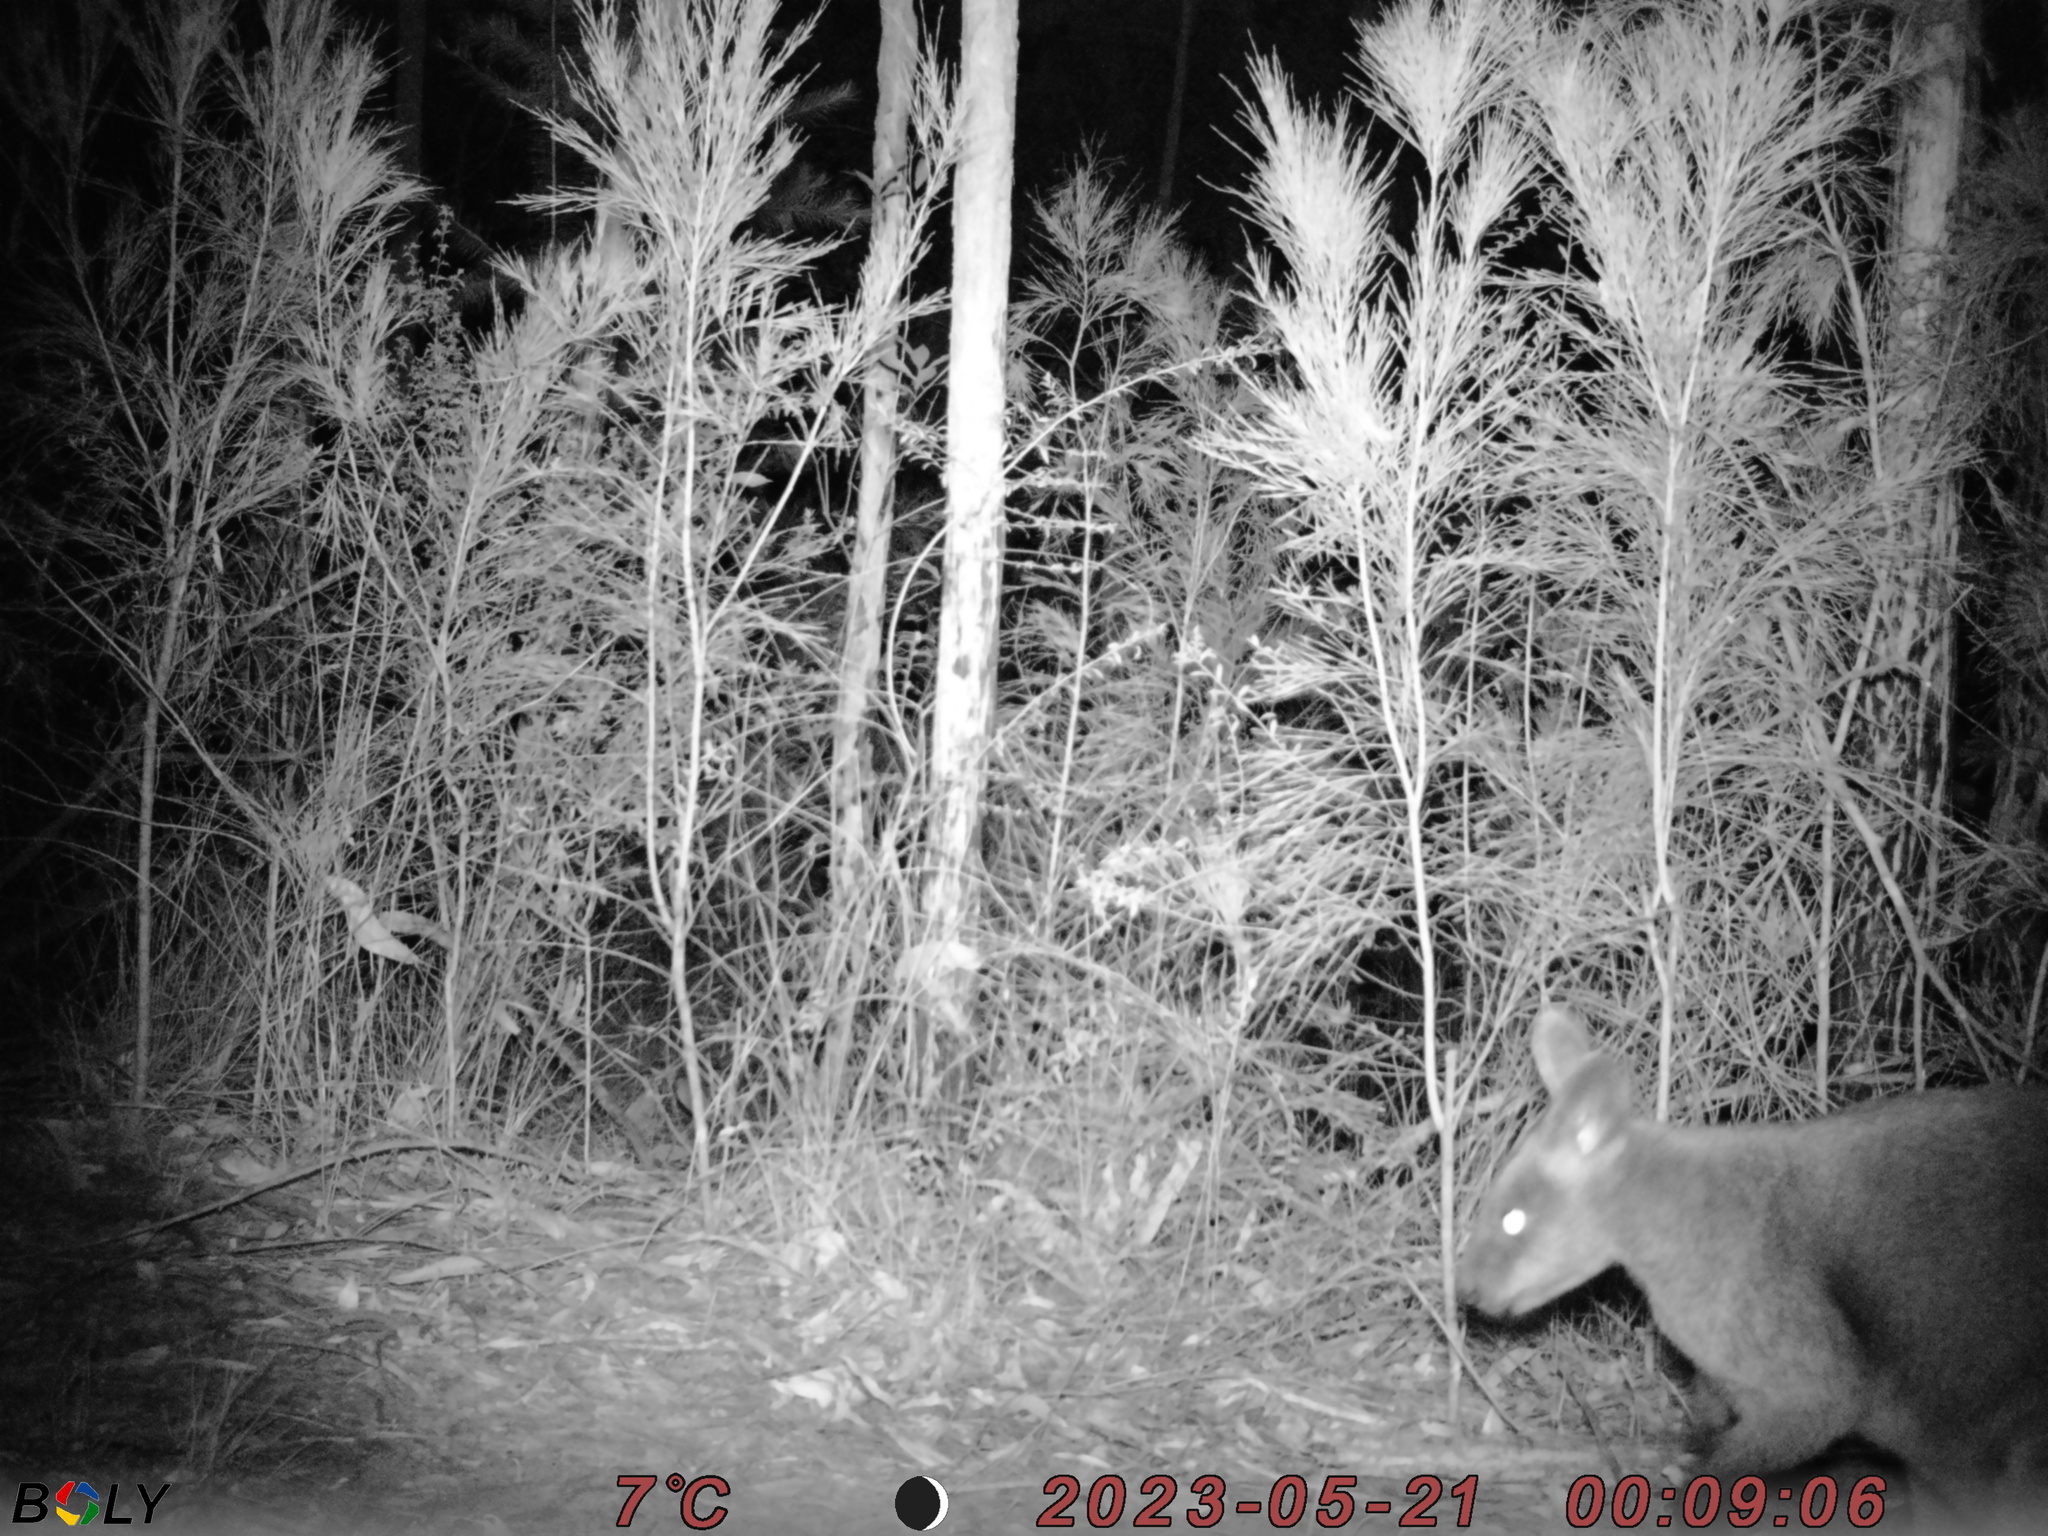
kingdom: Animalia
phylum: Chordata
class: Mammalia
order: Diprotodontia
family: Macropodidae
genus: Wallabia
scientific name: Wallabia bicolor
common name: Swamp wallaby
